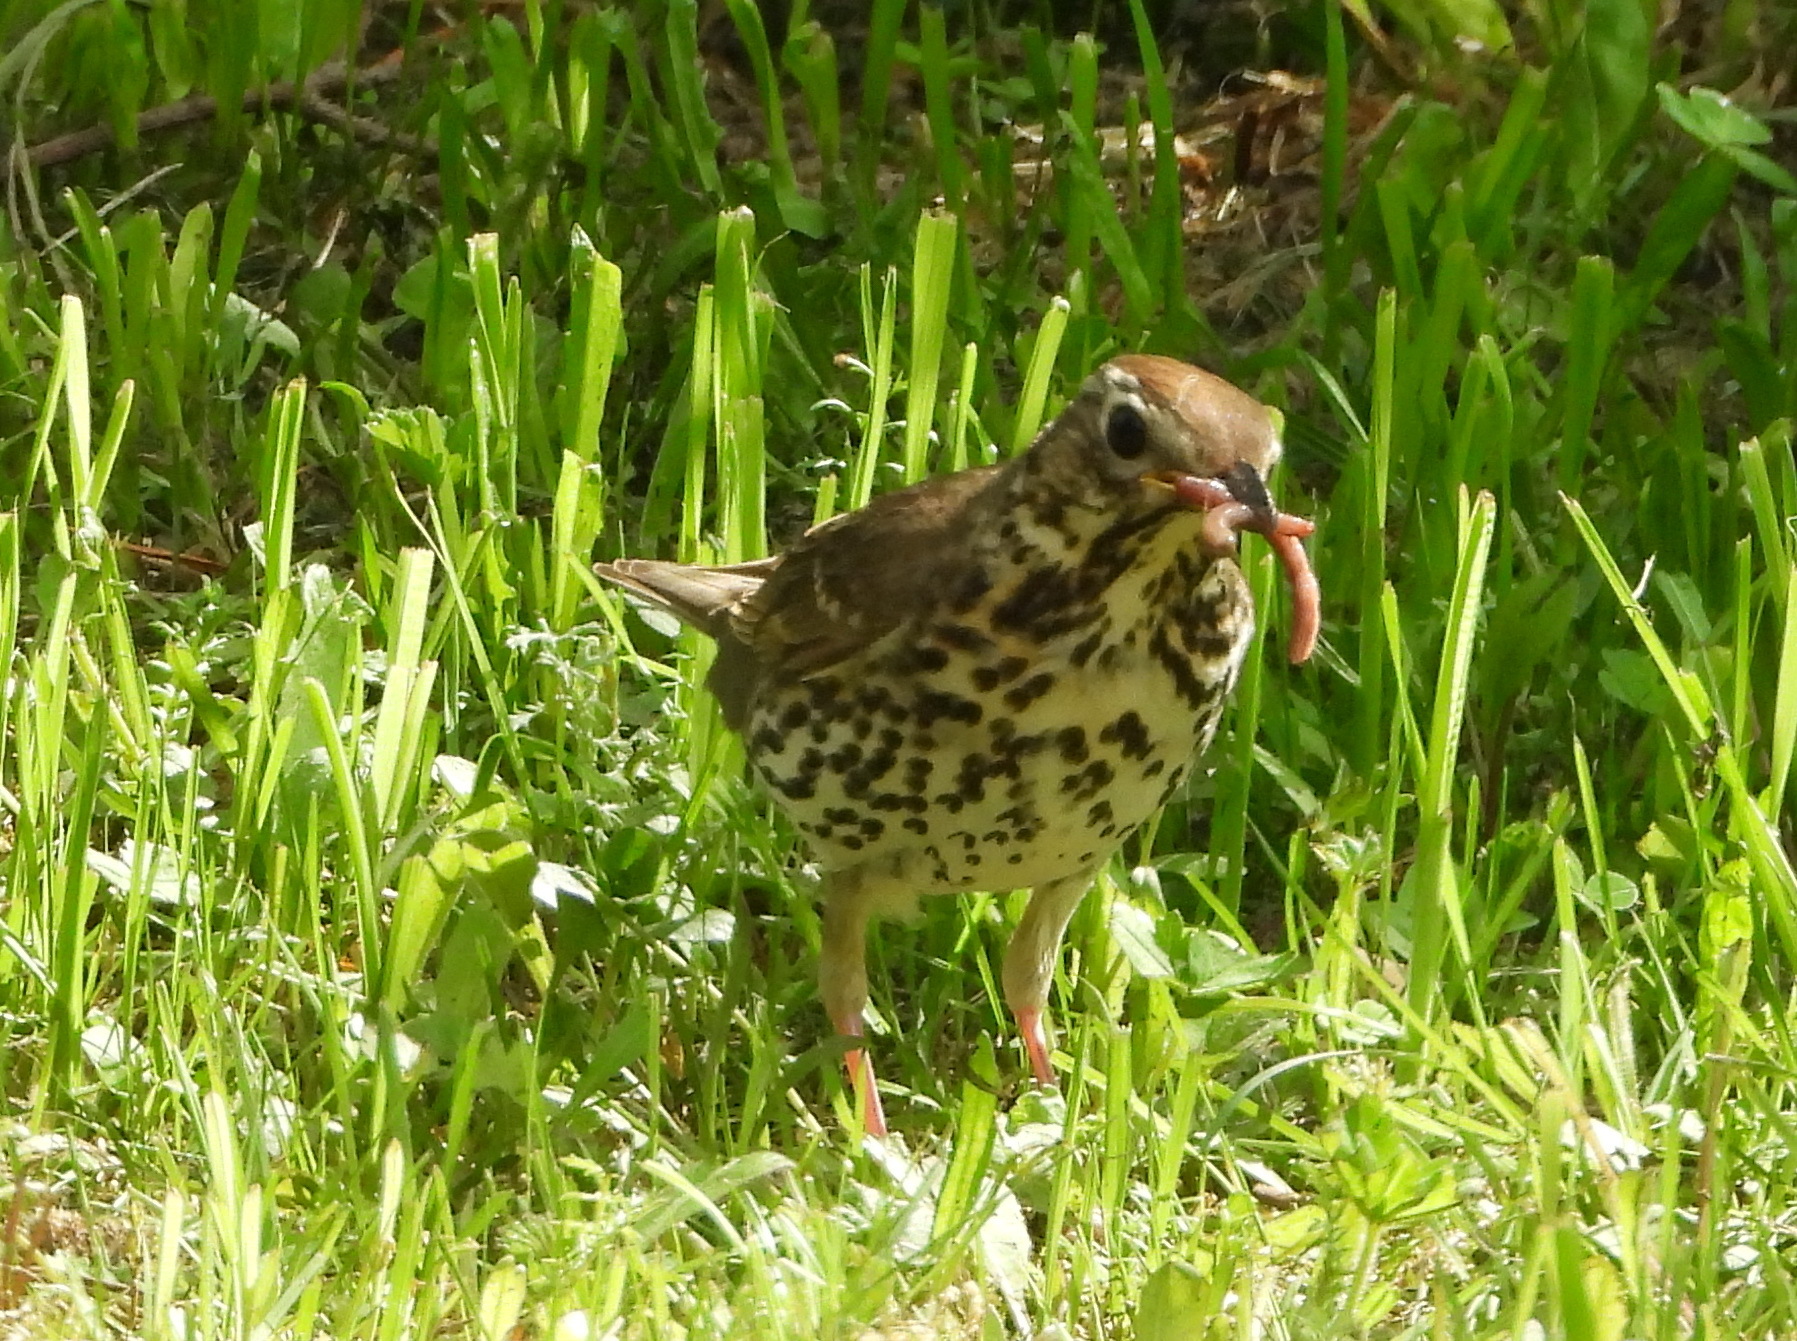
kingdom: Animalia
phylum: Chordata
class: Aves
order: Passeriformes
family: Turdidae
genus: Turdus
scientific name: Turdus philomelos
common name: Song thrush
